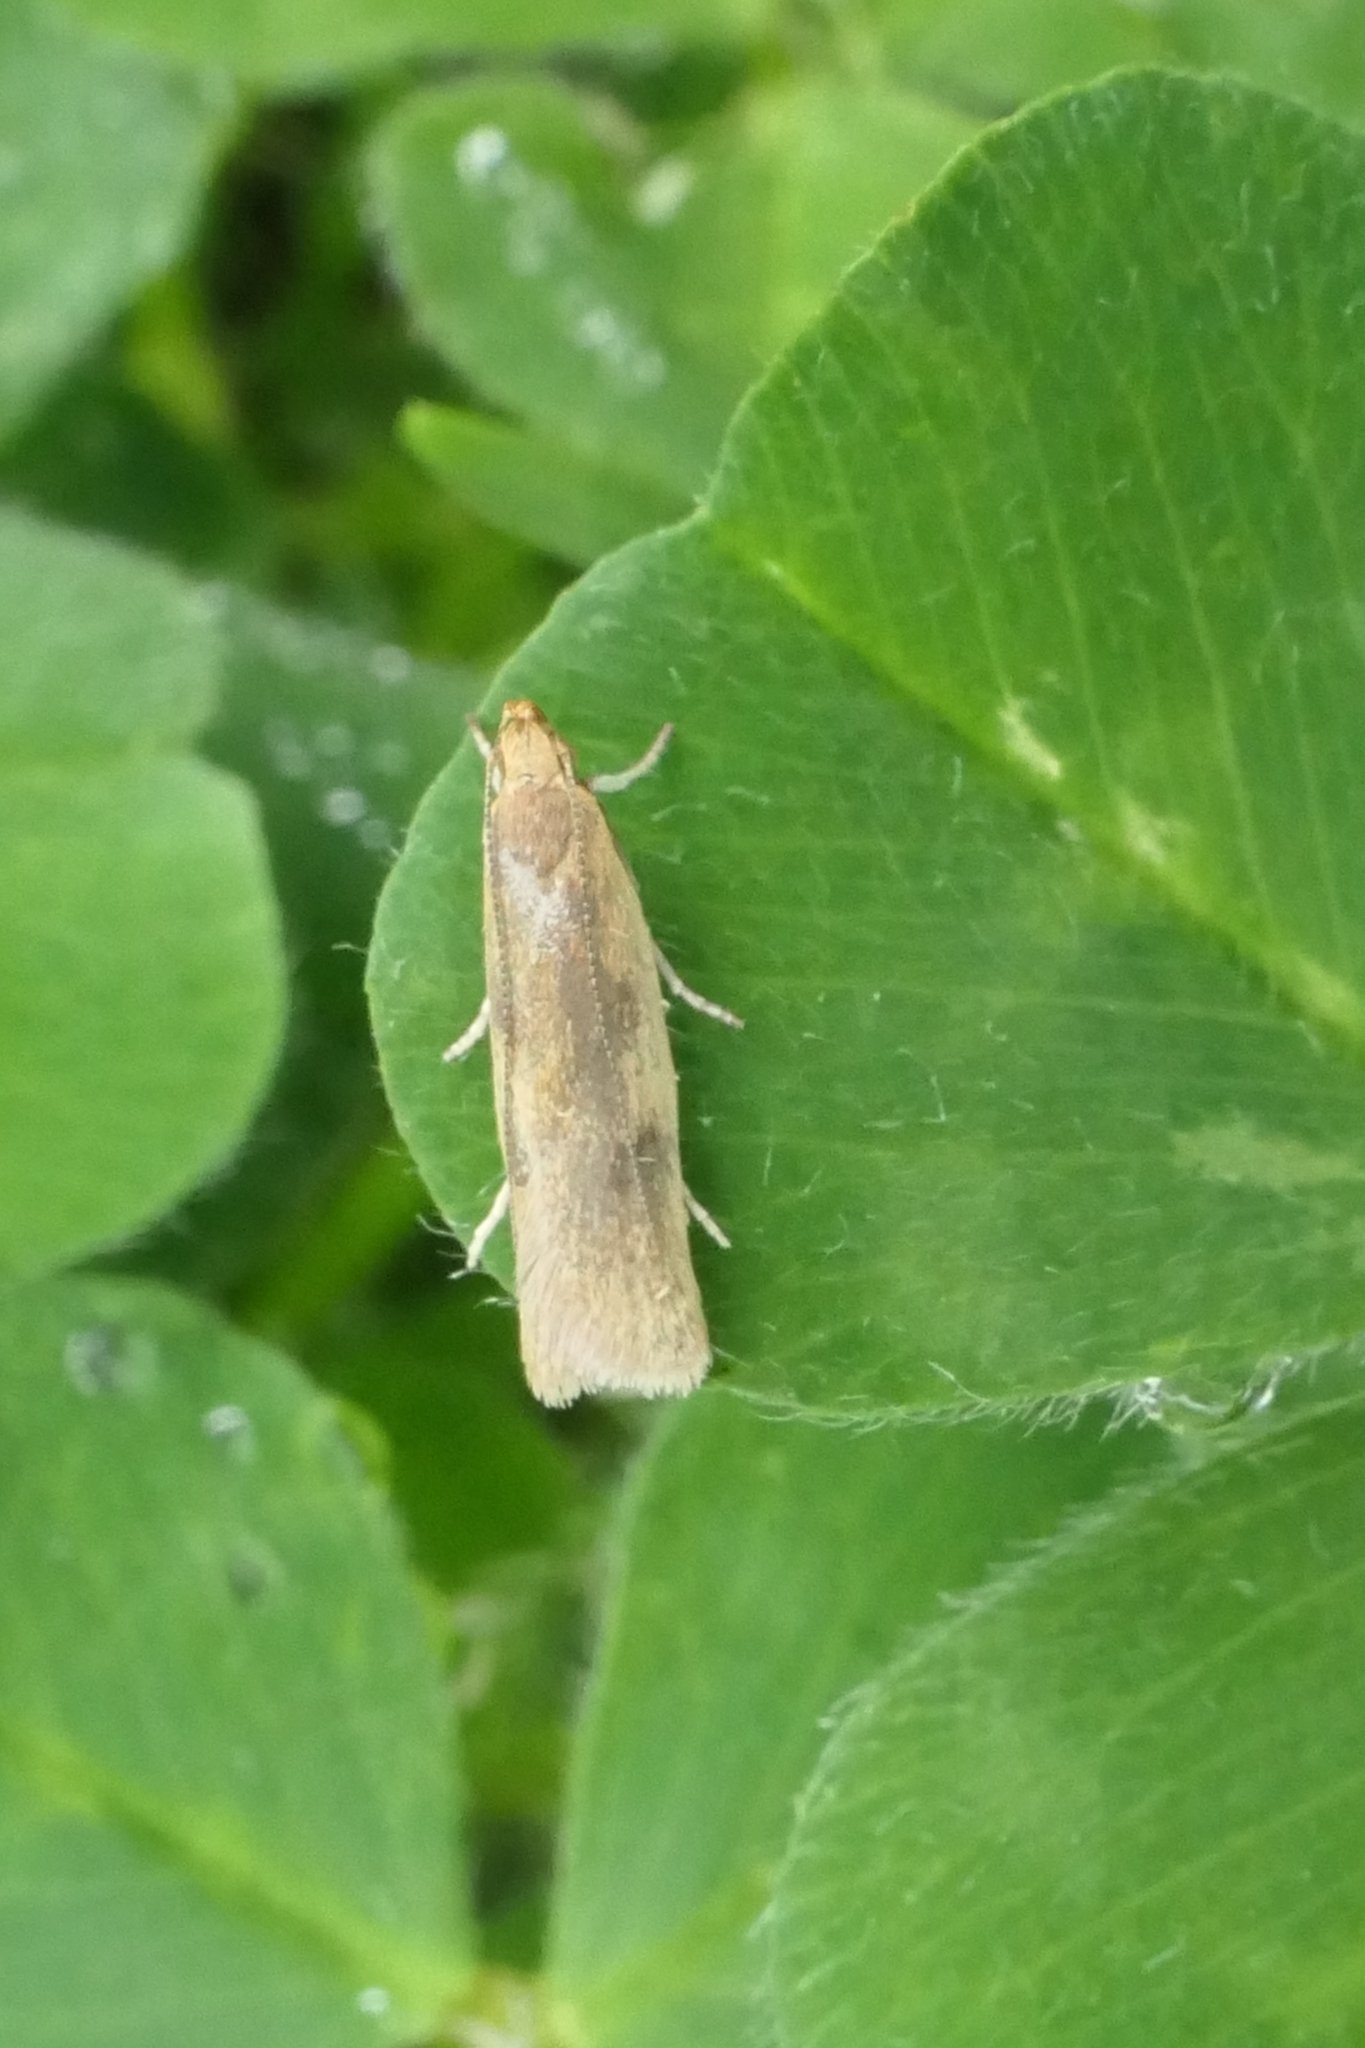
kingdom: Animalia
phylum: Arthropoda
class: Insecta
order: Lepidoptera
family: Oecophoridae
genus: Gymnobathra
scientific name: Gymnobathra parca
